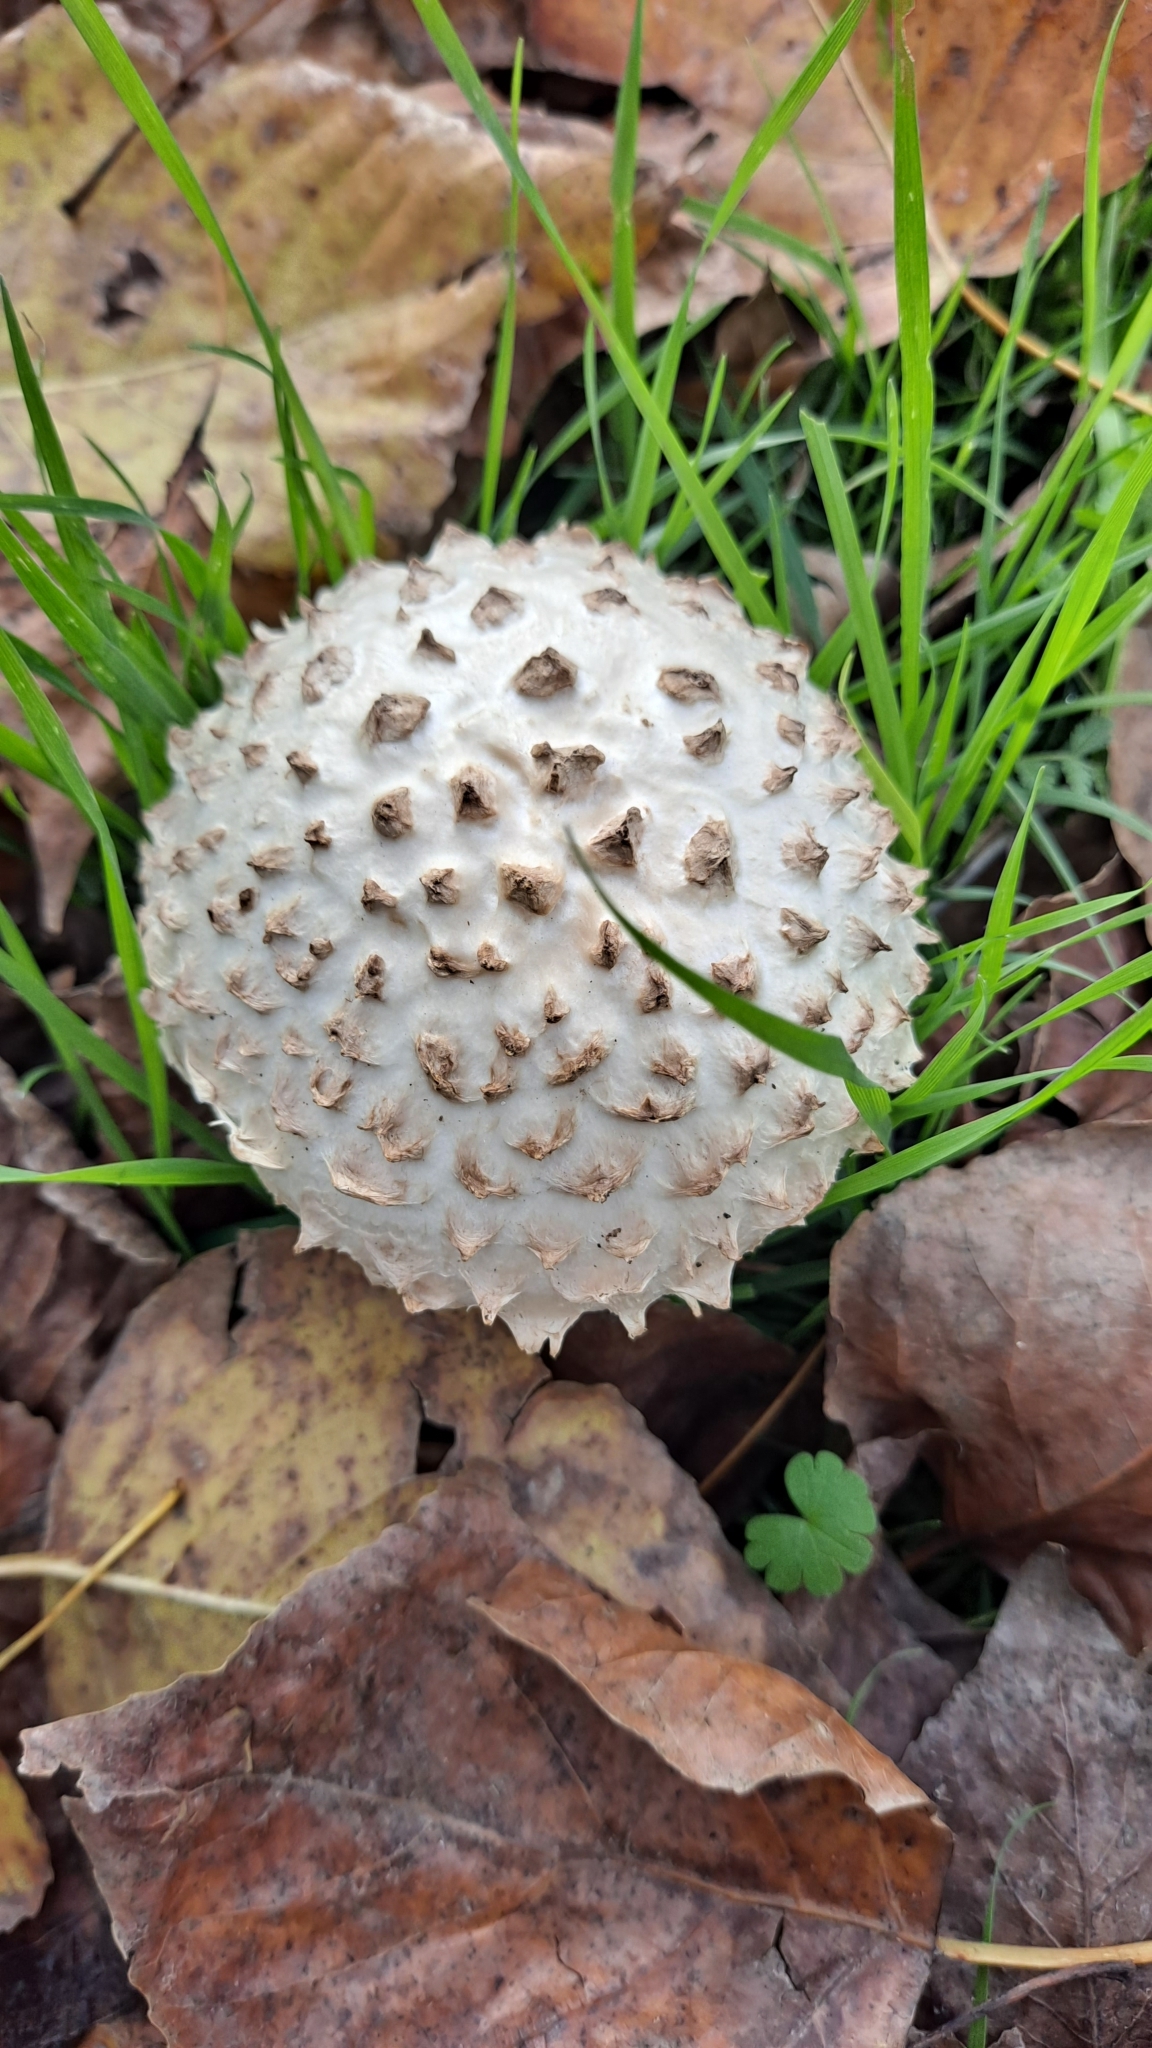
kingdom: Fungi
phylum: Basidiomycota
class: Agaricomycetes
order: Agaricales
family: Amanitaceae
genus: Amanita
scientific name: Amanita vittadinii
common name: Barefoot amanita
